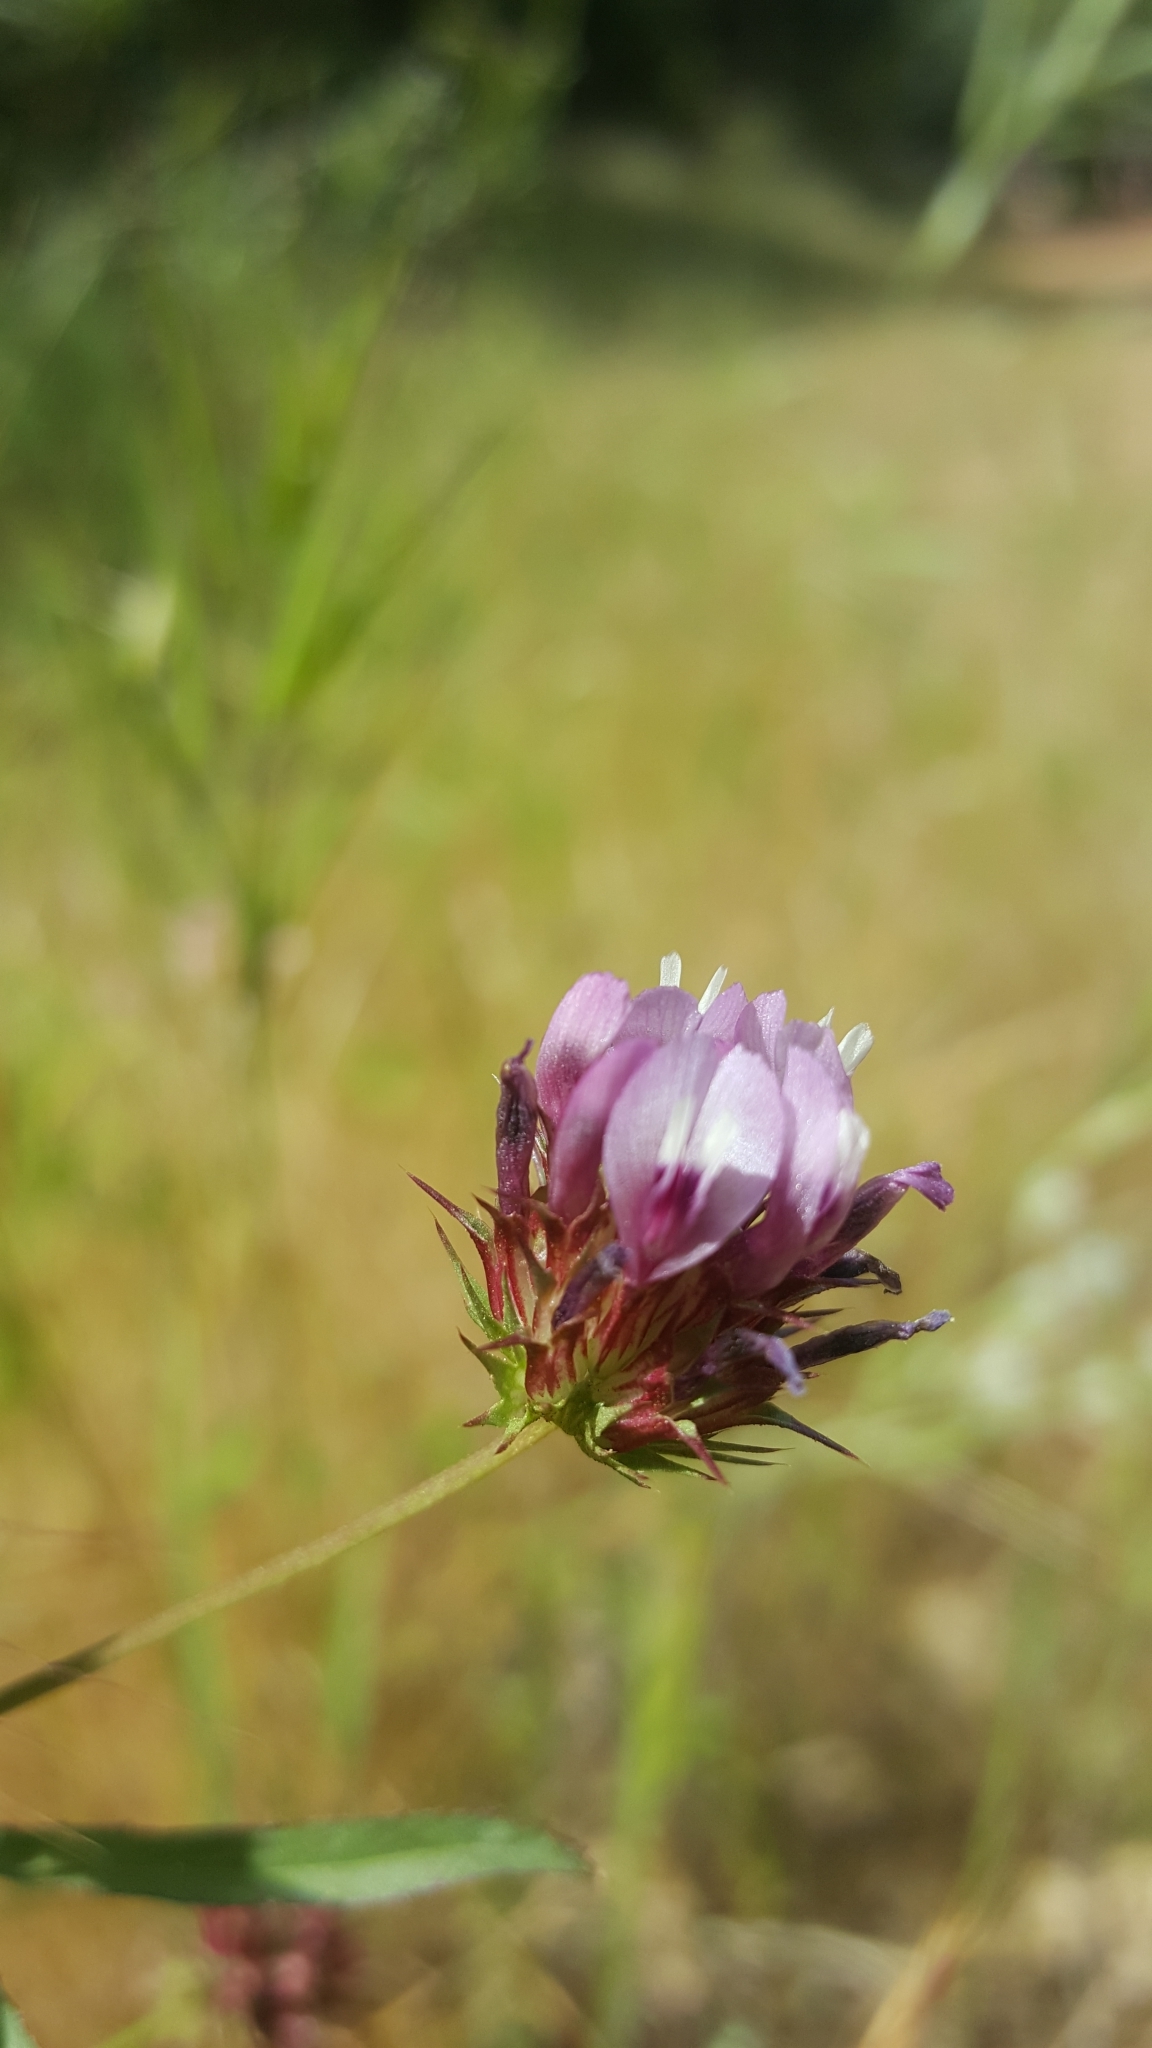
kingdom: Plantae
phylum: Tracheophyta
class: Magnoliopsida
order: Fabales
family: Fabaceae
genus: Trifolium
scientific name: Trifolium willdenovii
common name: Tomcat clover
